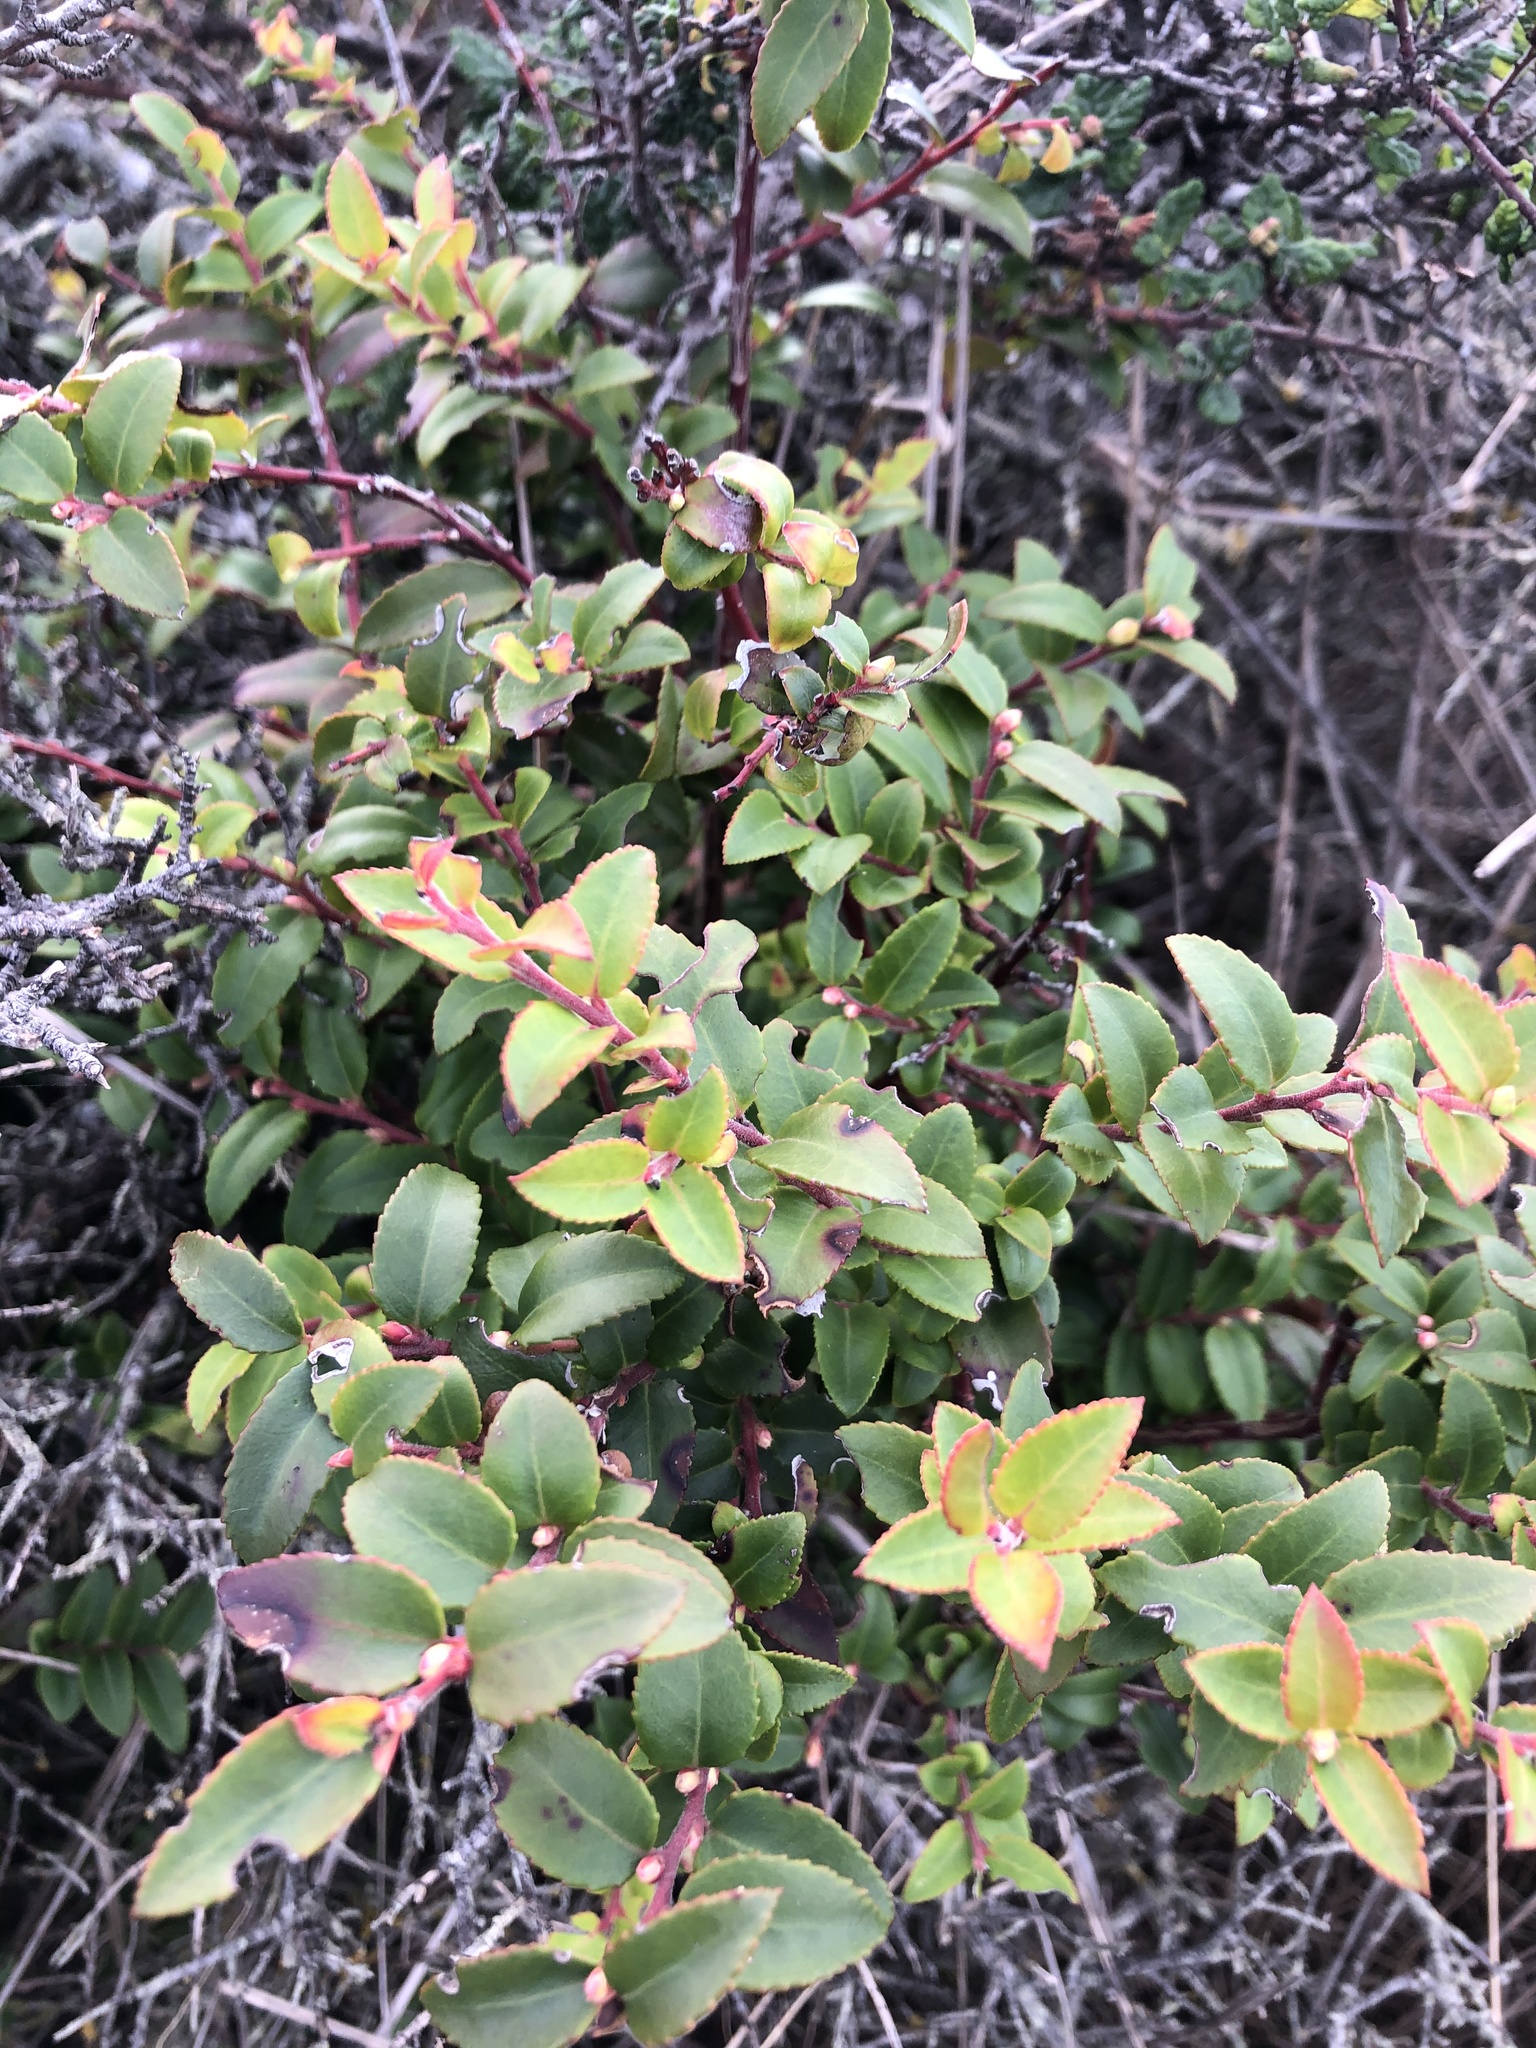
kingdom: Plantae
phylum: Tracheophyta
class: Magnoliopsida
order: Ericales
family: Ericaceae
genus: Vaccinium
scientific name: Vaccinium ovatum
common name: California-huckleberry
